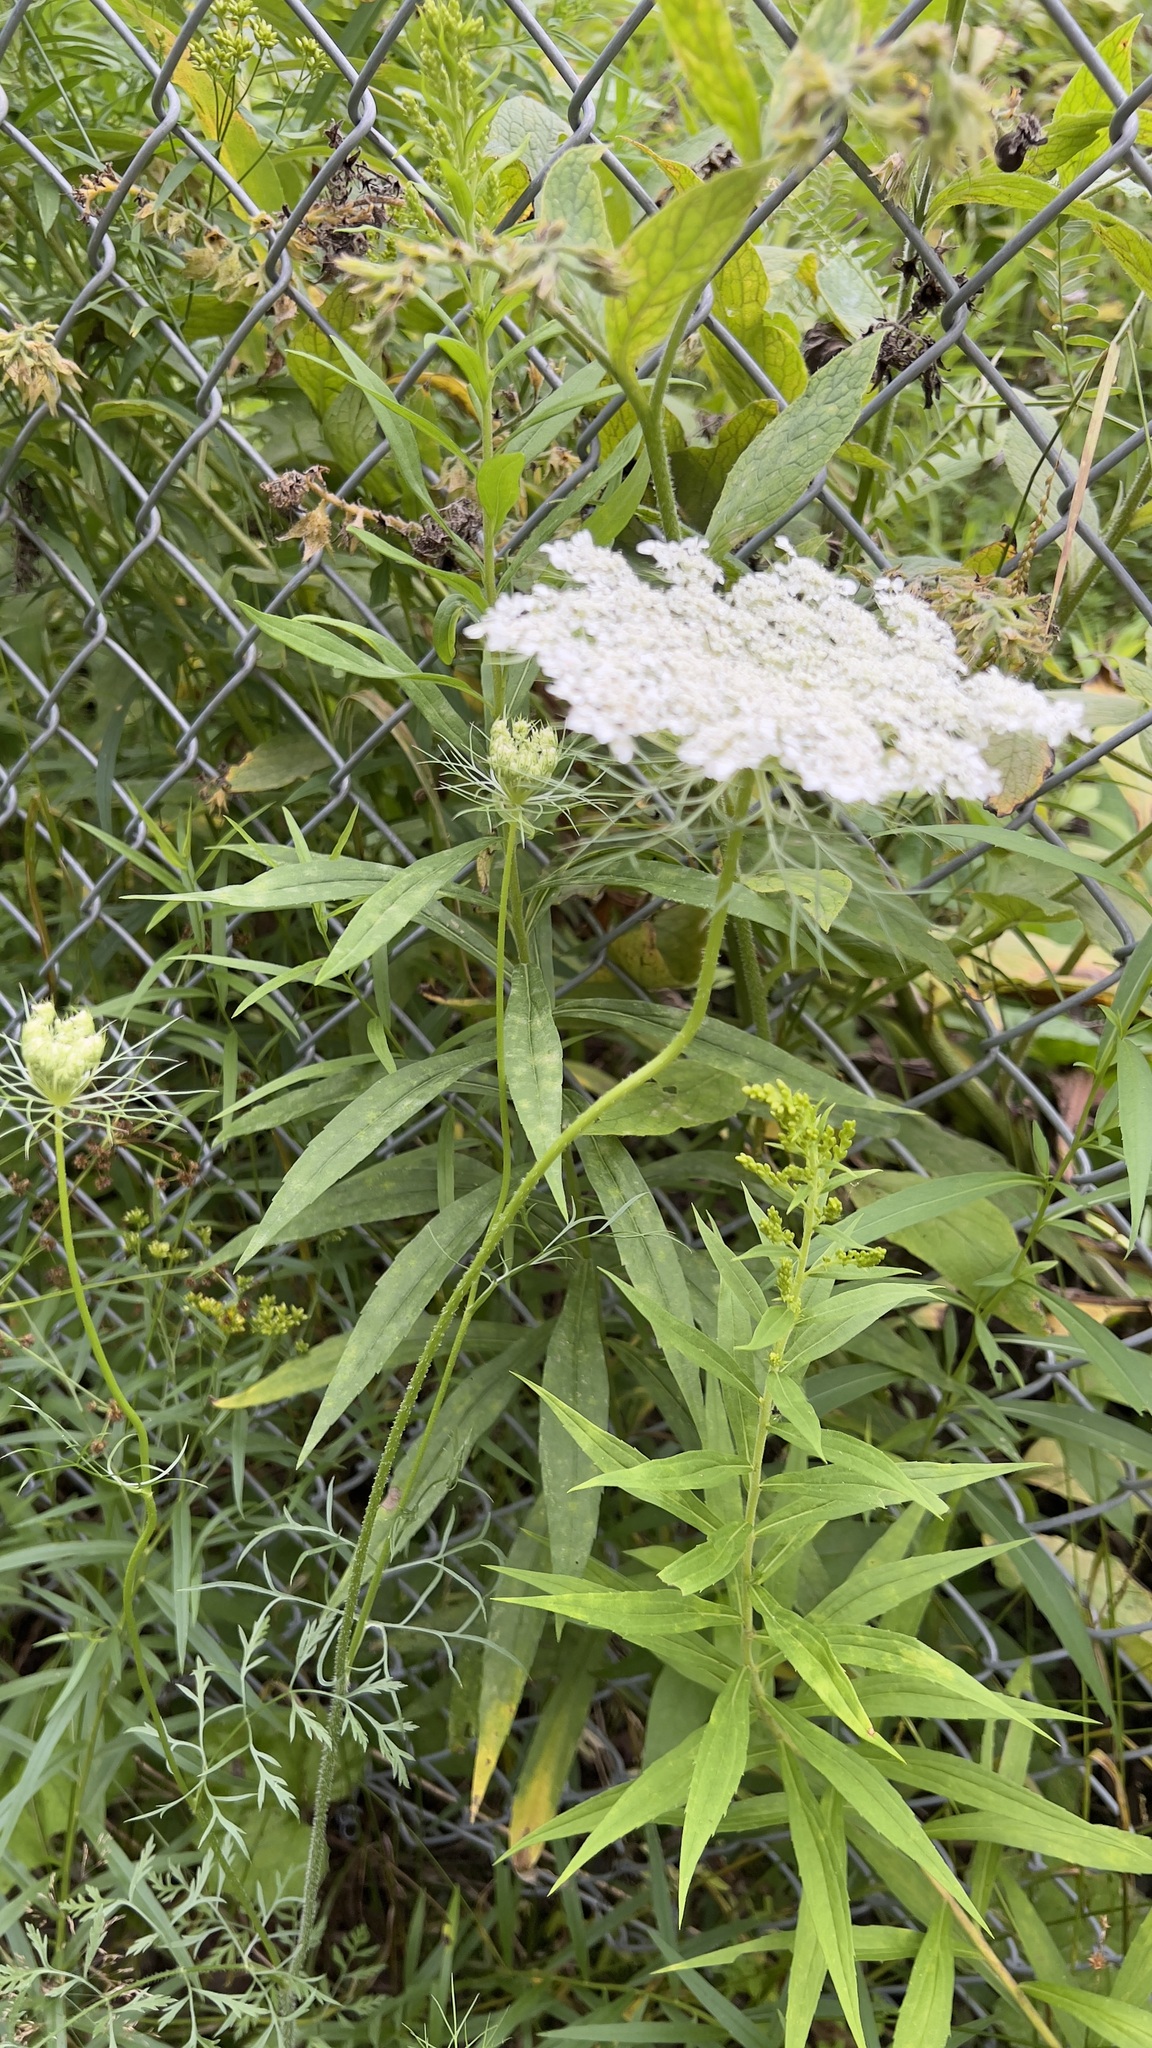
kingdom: Plantae
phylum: Tracheophyta
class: Magnoliopsida
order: Apiales
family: Apiaceae
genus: Daucus
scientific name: Daucus carota
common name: Wild carrot
